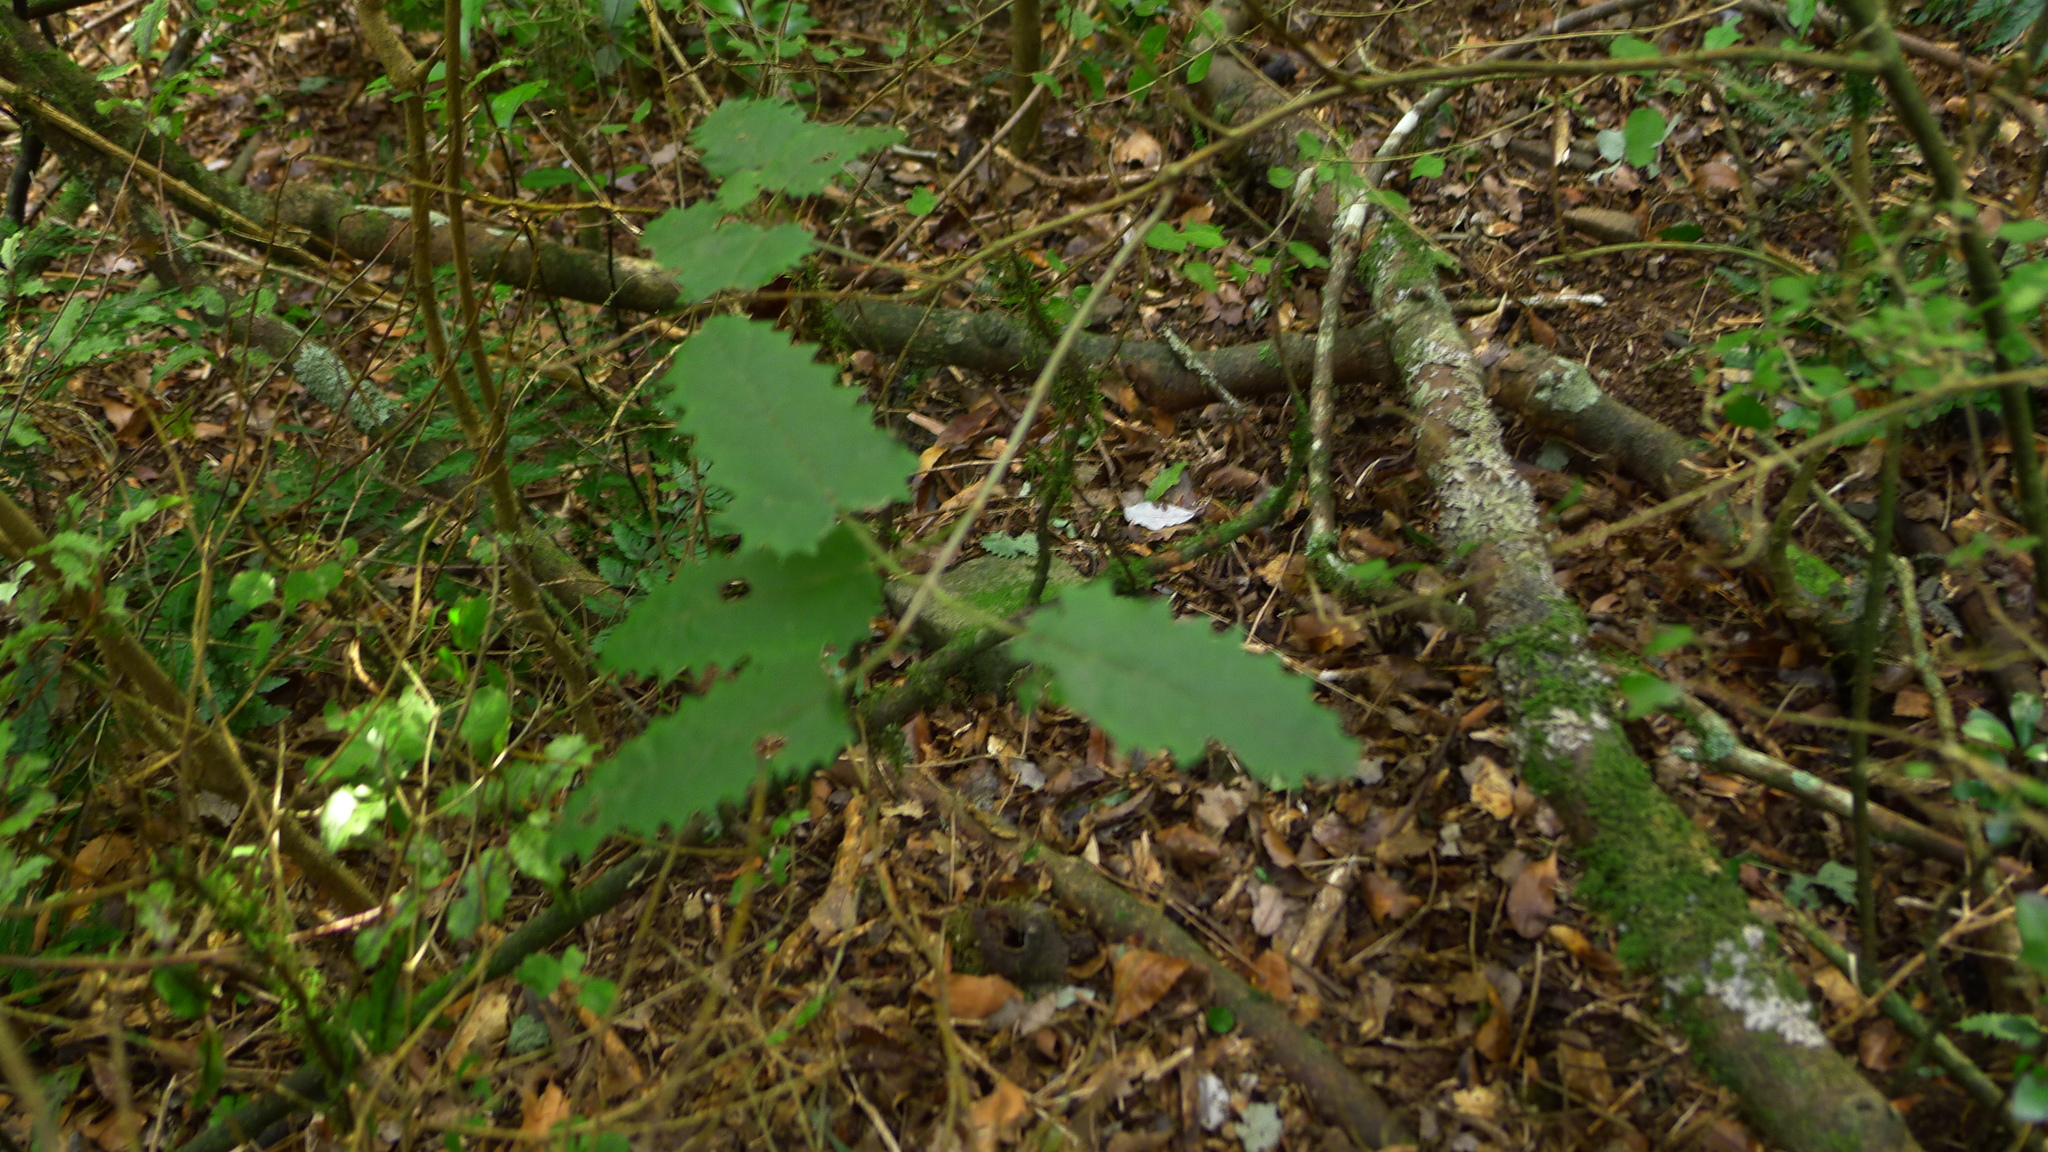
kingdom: Plantae
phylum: Tracheophyta
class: Magnoliopsida
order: Rosales
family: Urticaceae
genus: Urtica
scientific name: Urtica ferox
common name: Tree nettle
